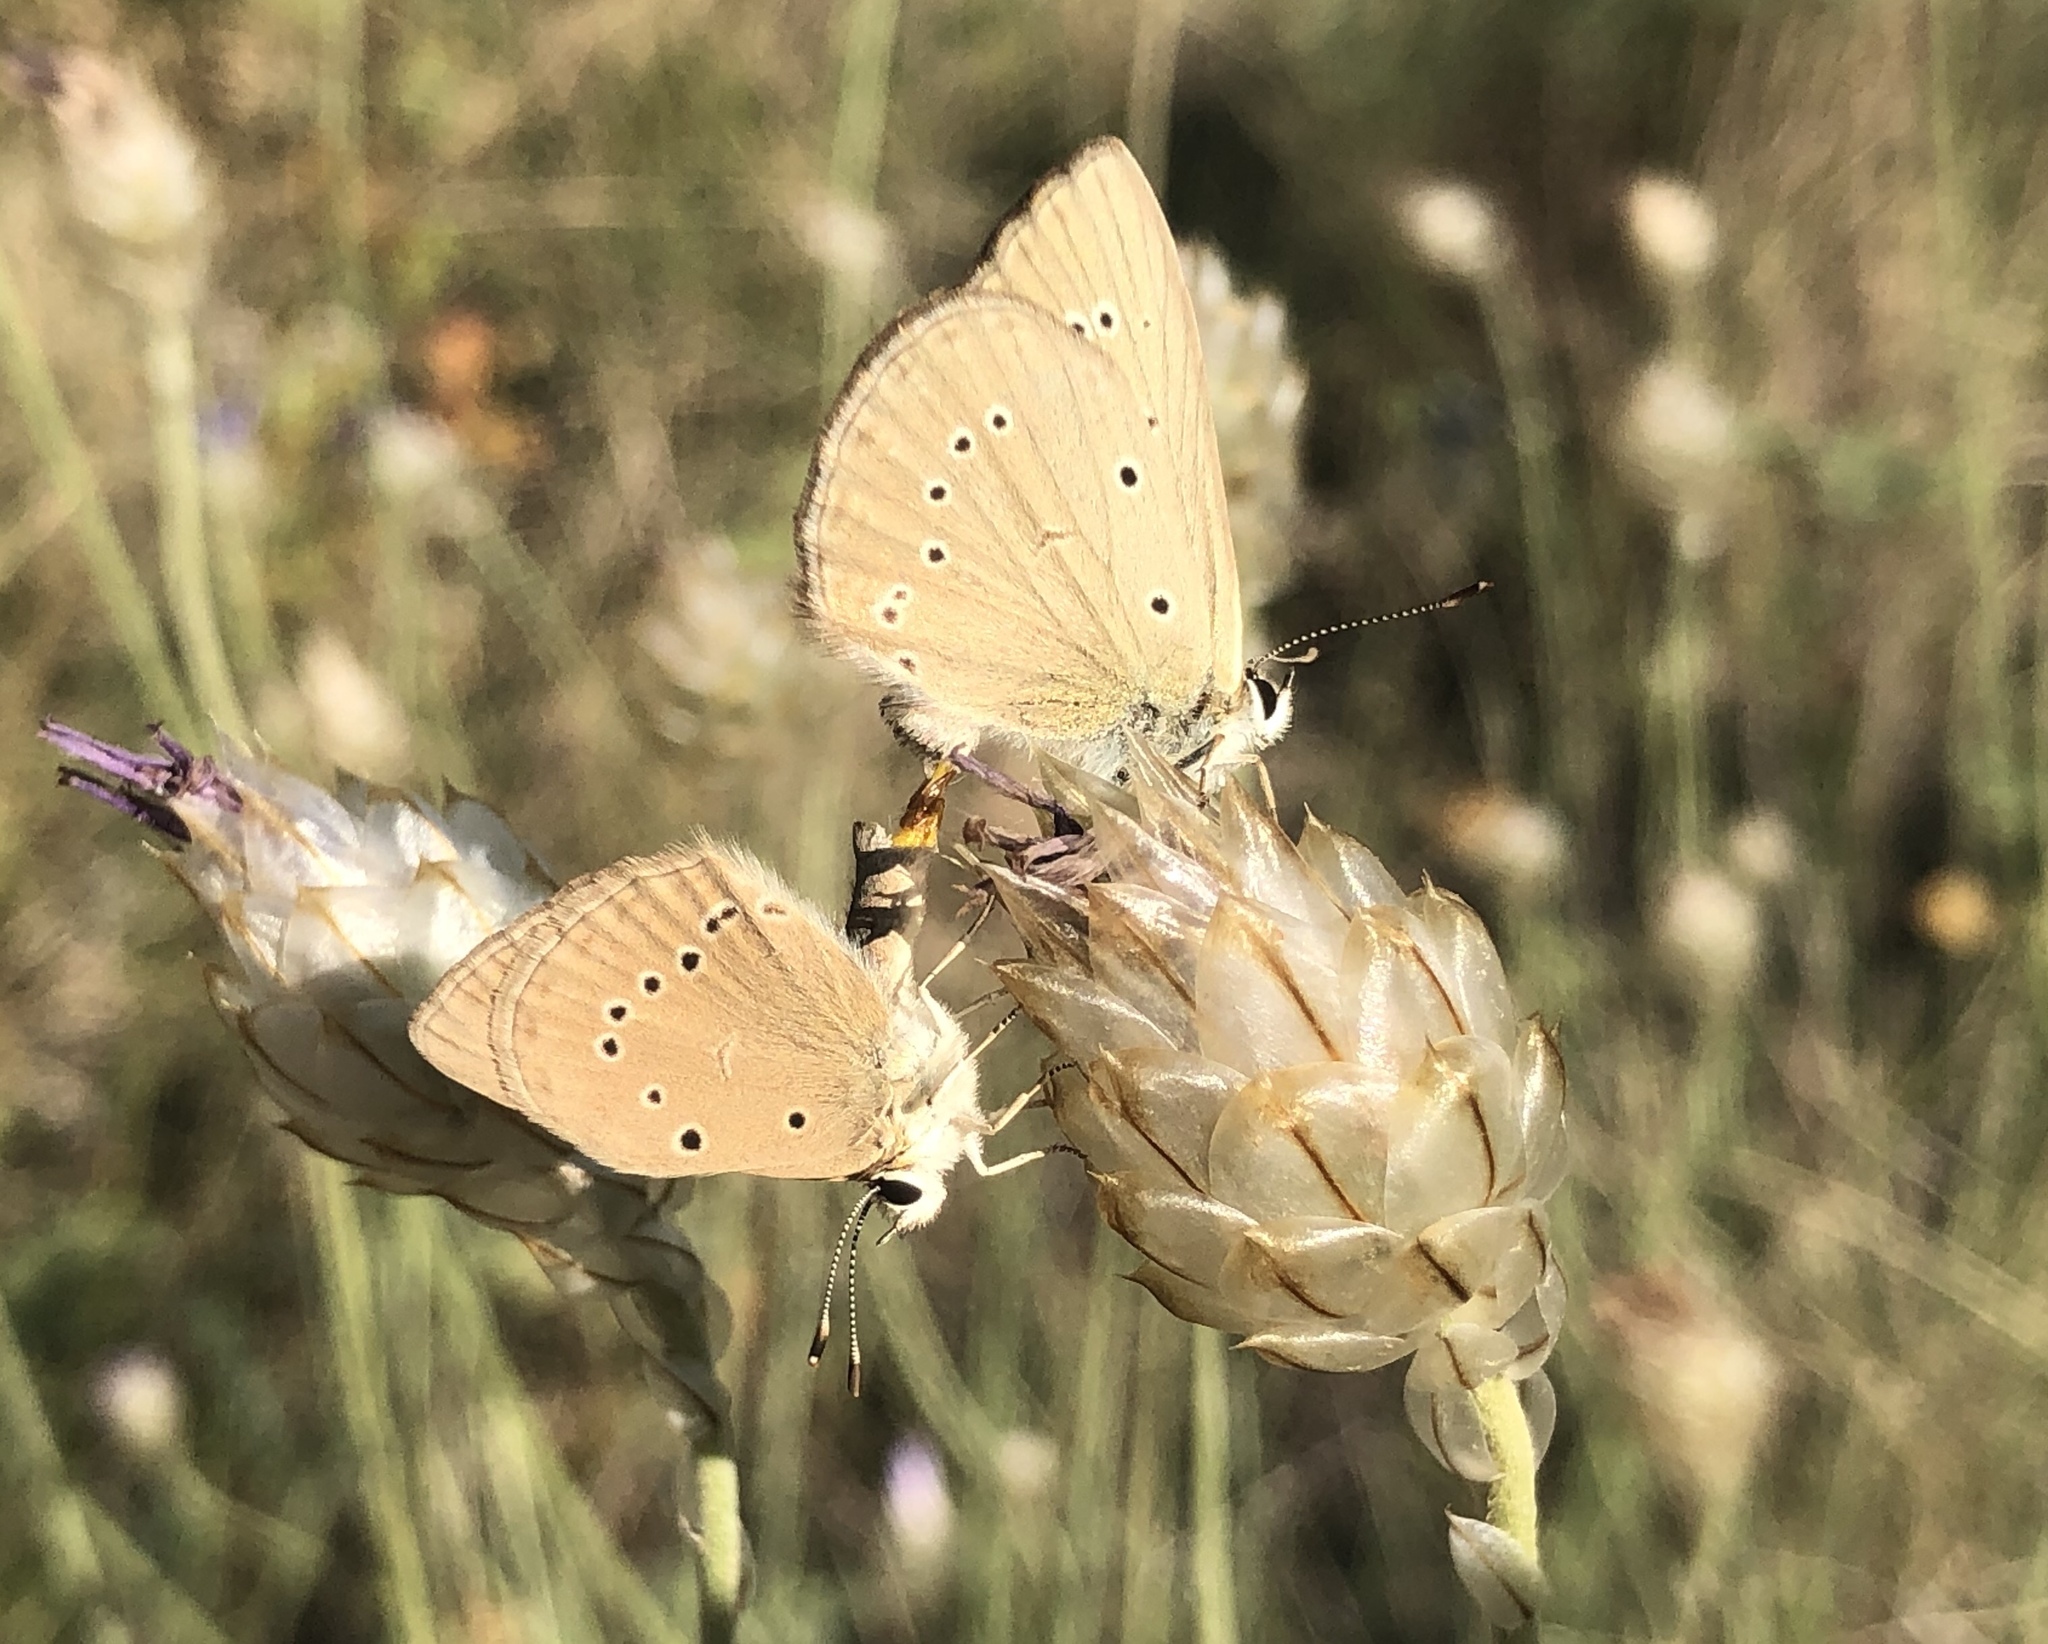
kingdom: Animalia
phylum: Arthropoda
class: Insecta
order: Lepidoptera
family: Lycaenidae
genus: Polyommatus
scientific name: Polyommatus ripartii
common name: Ripart's anomalous blue
